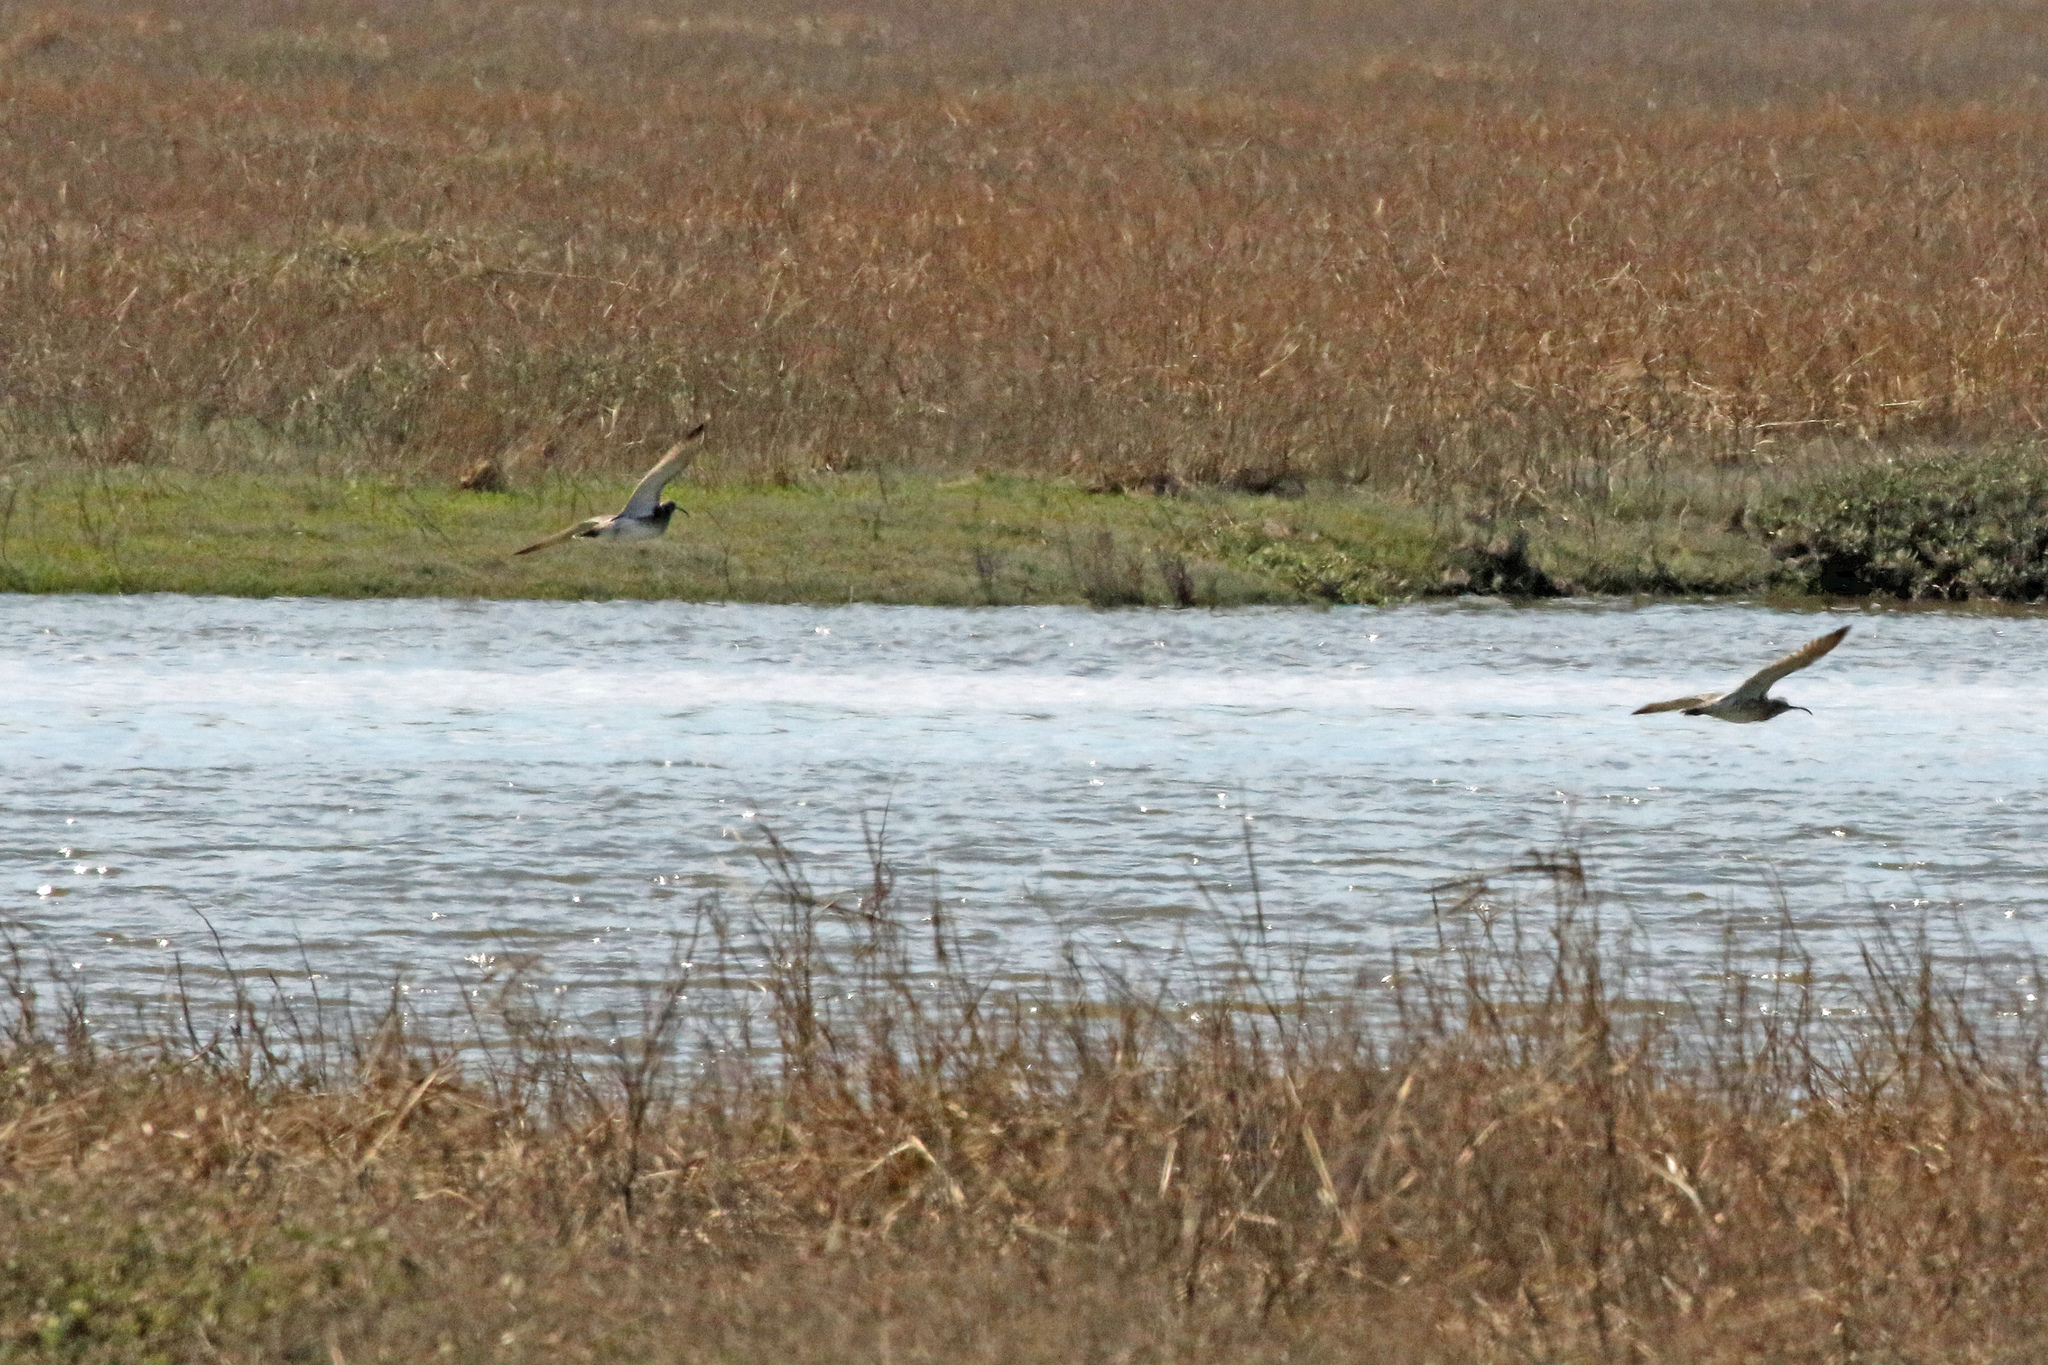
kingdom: Animalia
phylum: Chordata
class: Aves
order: Charadriiformes
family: Scolopacidae
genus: Numenius
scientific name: Numenius phaeopus
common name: Whimbrel
